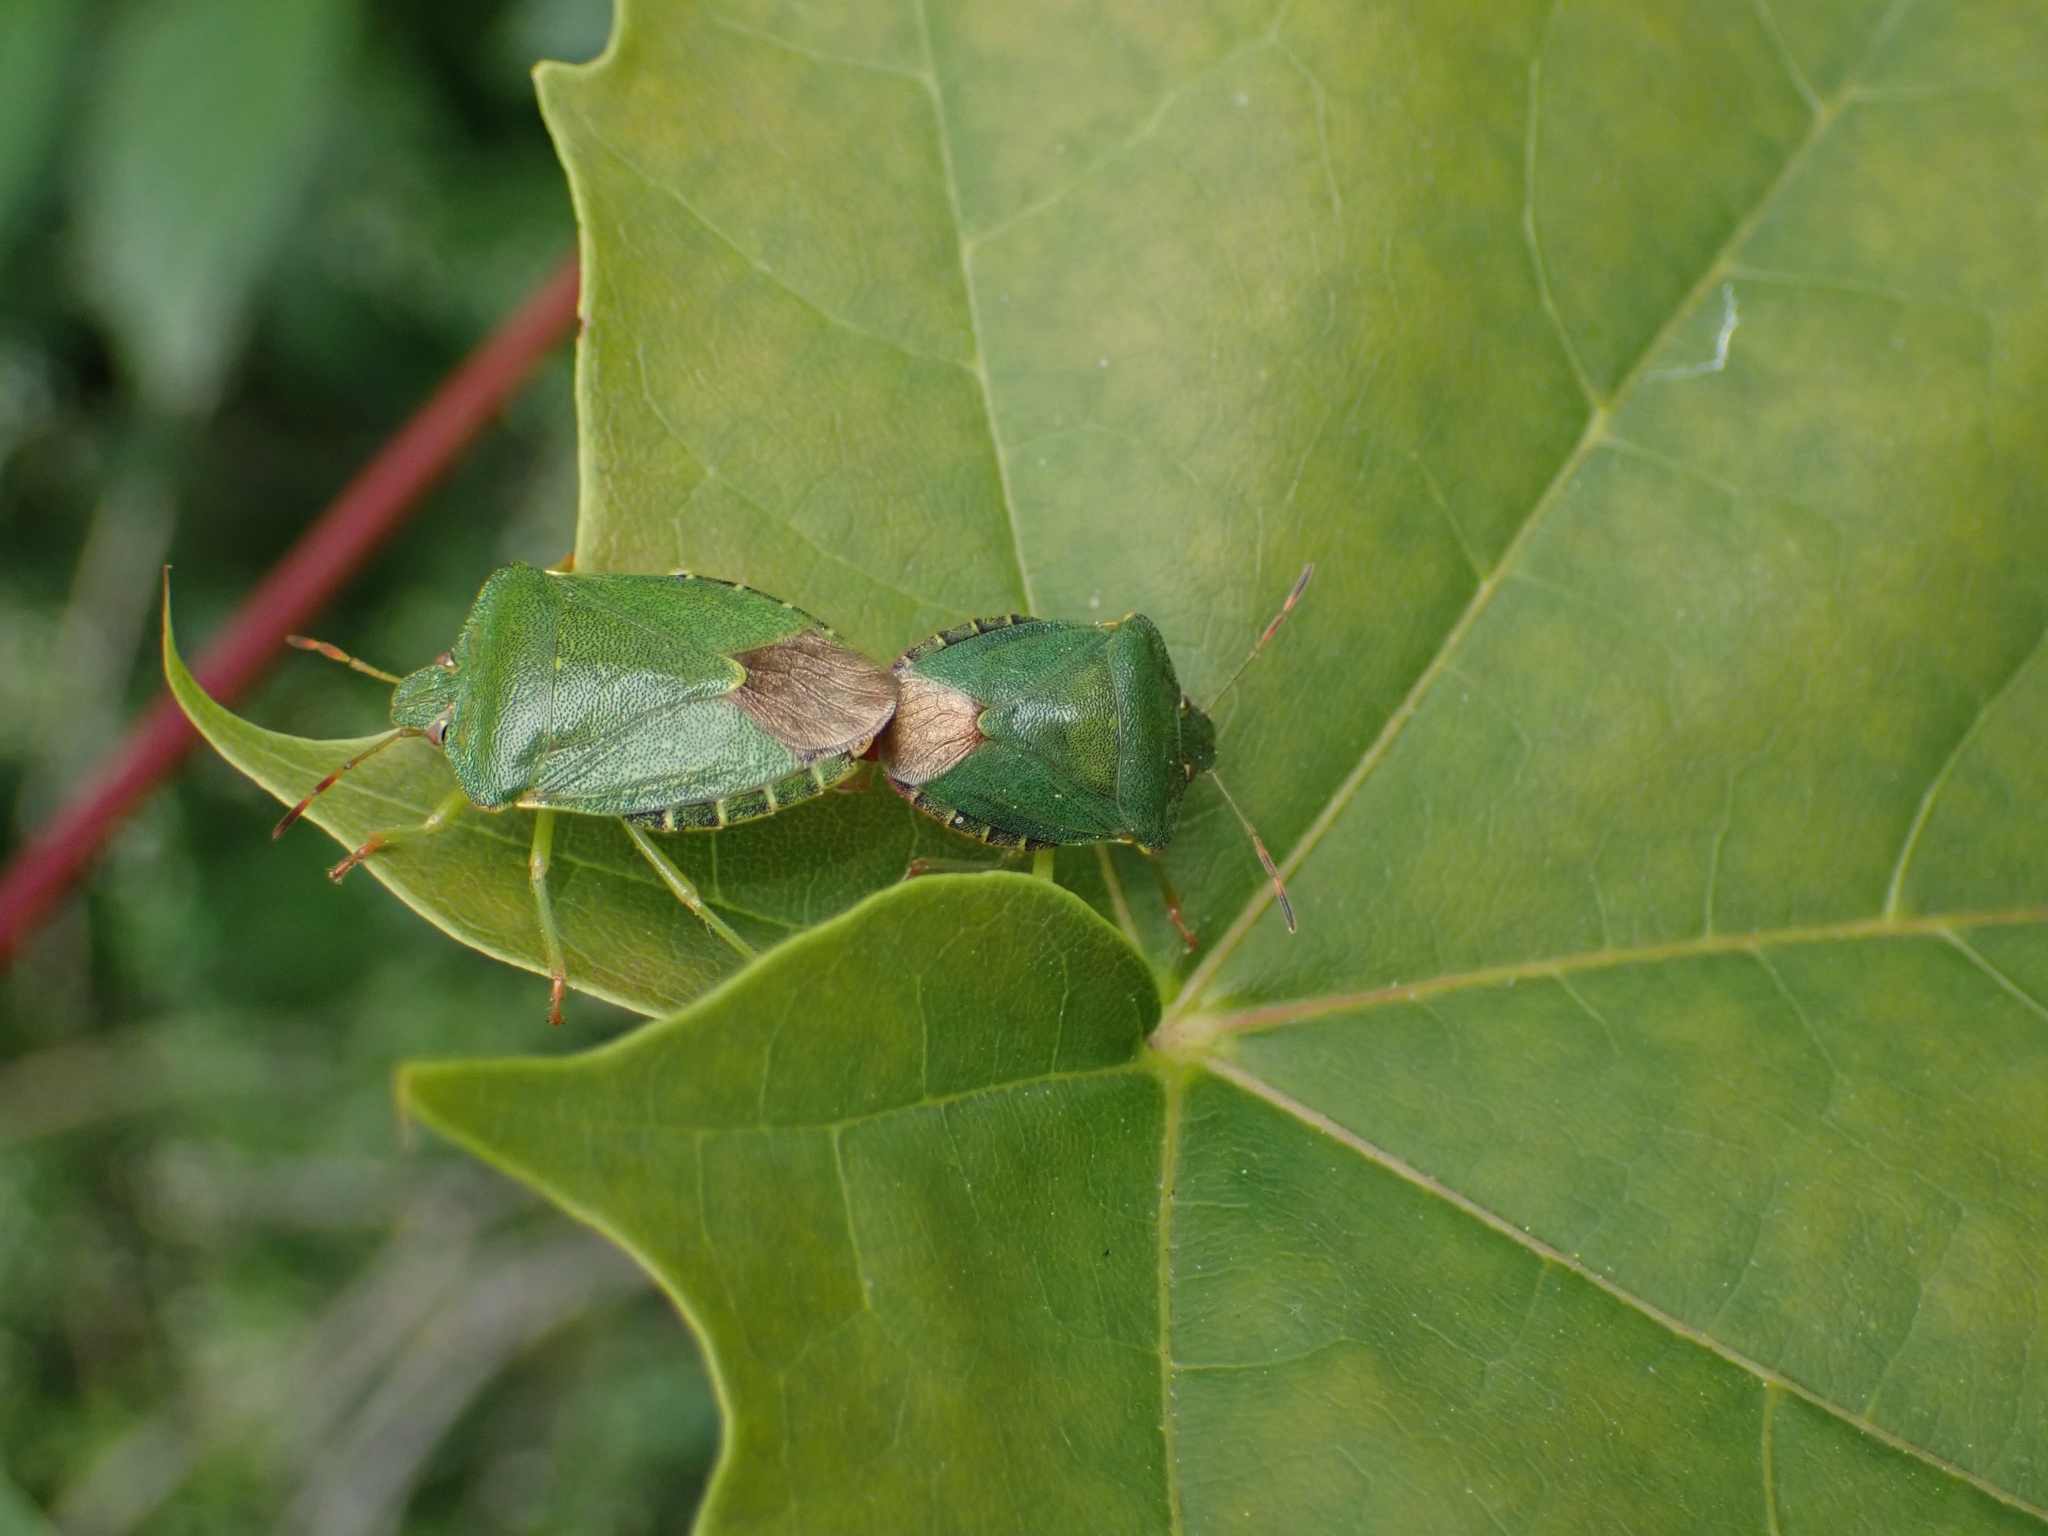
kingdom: Animalia
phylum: Arthropoda
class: Insecta
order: Hemiptera
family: Pentatomidae
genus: Palomena
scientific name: Palomena prasina
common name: Green shieldbug
